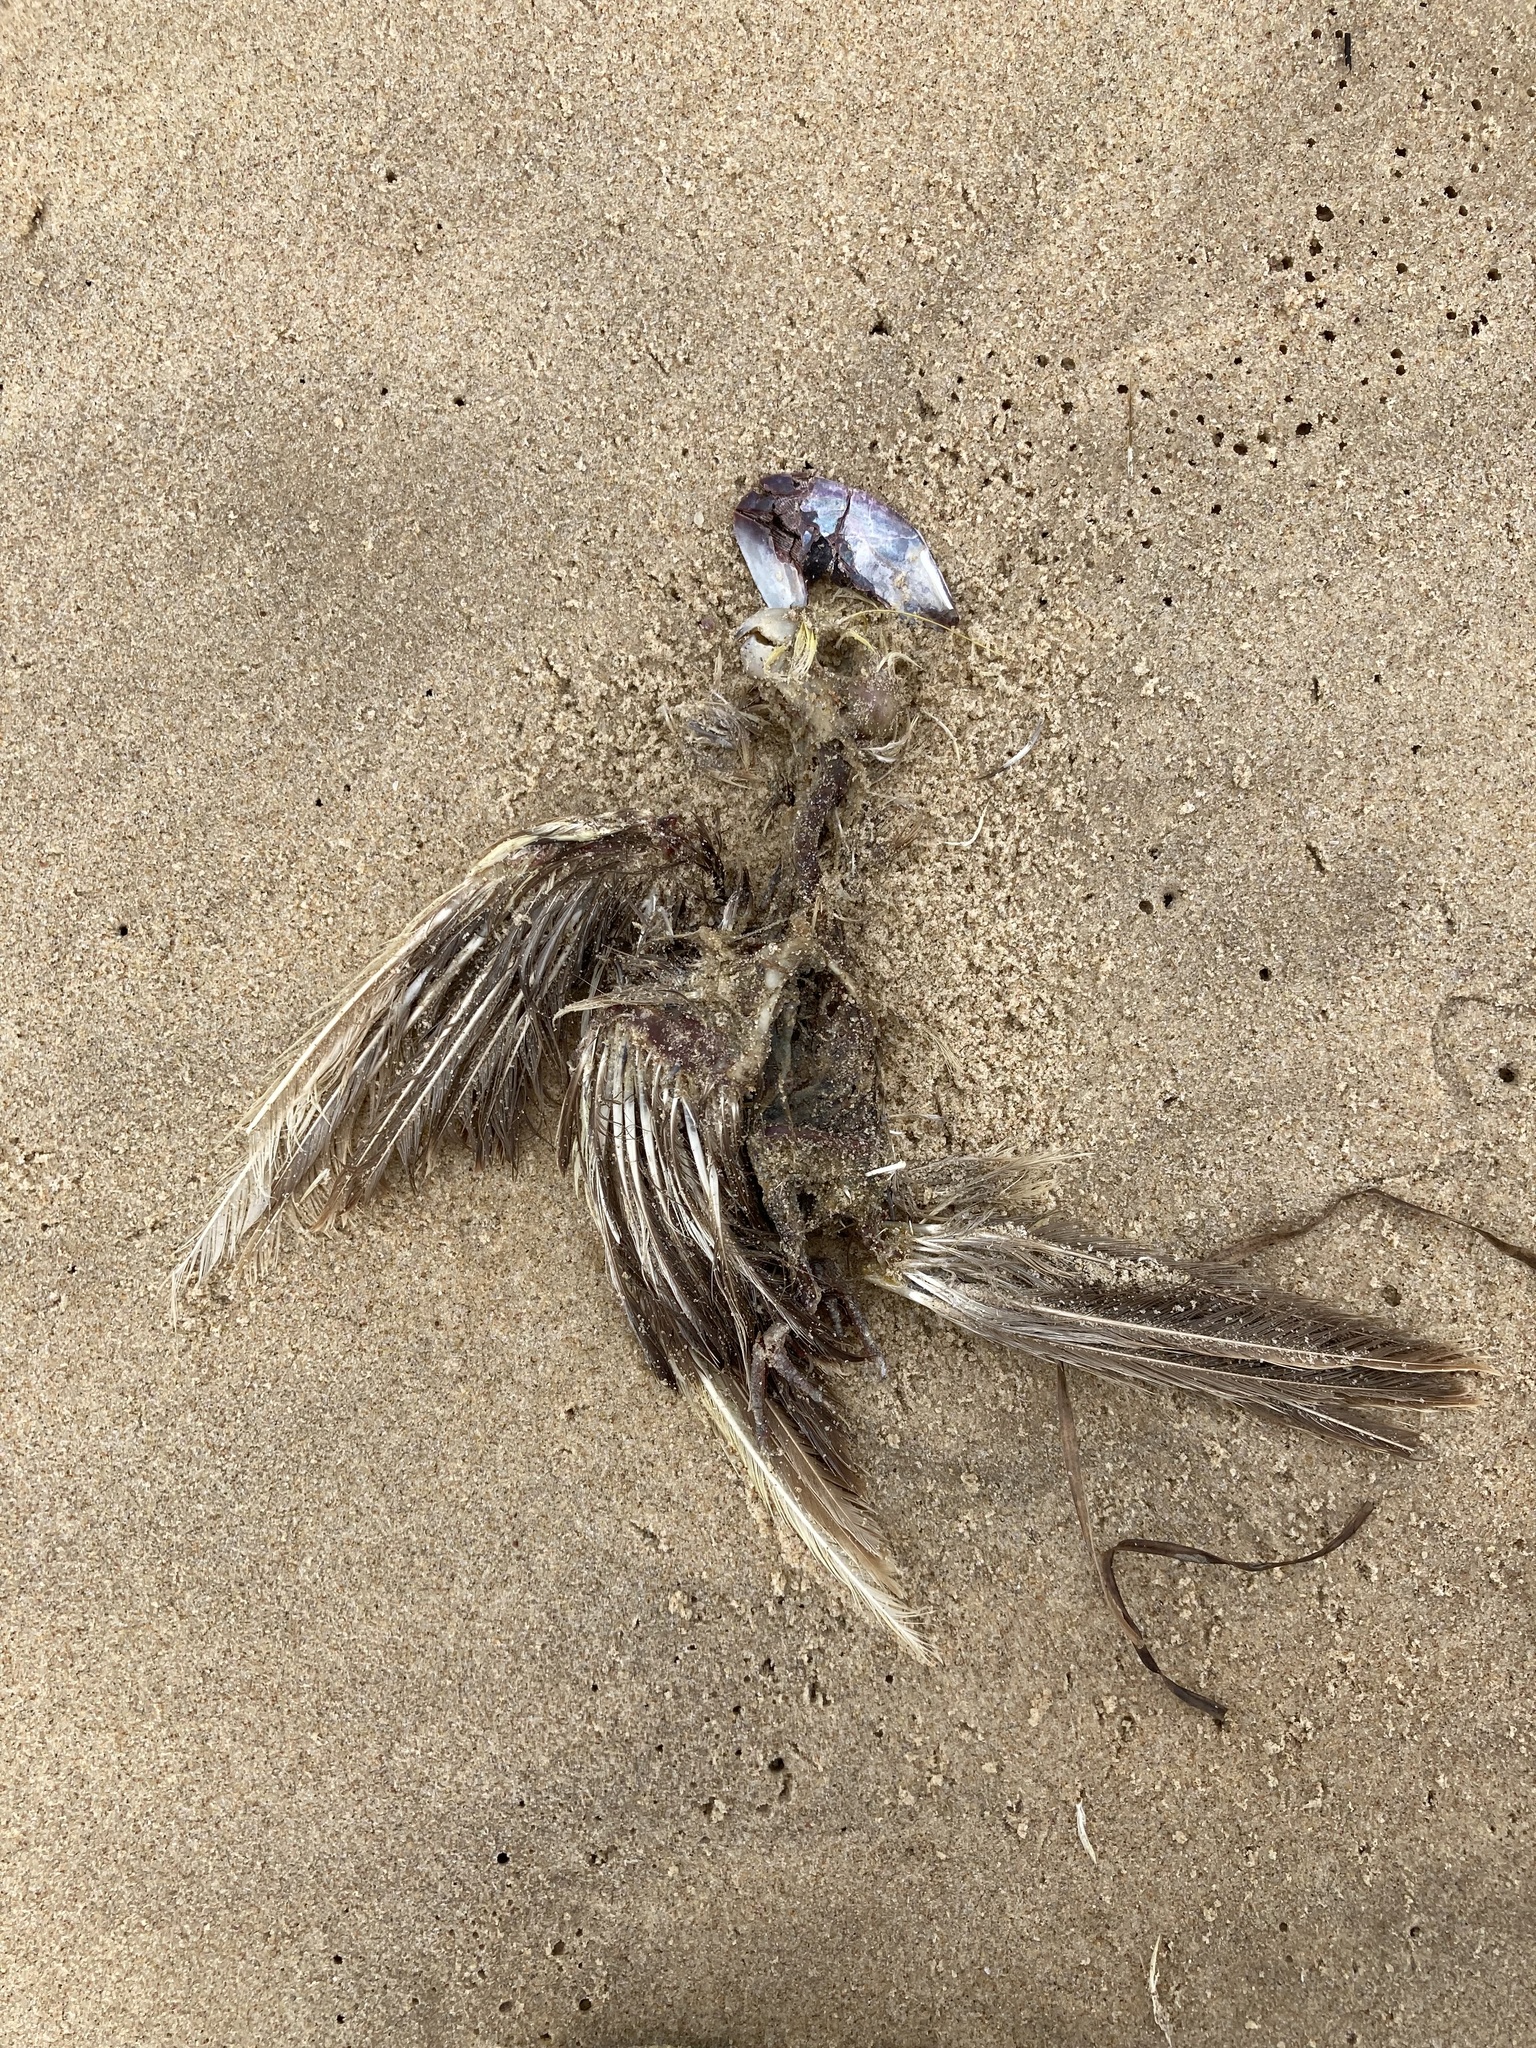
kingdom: Animalia
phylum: Chordata
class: Aves
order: Psittaciformes
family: Psittacidae
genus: Nymphicus
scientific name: Nymphicus hollandicus
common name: Cockatiel
